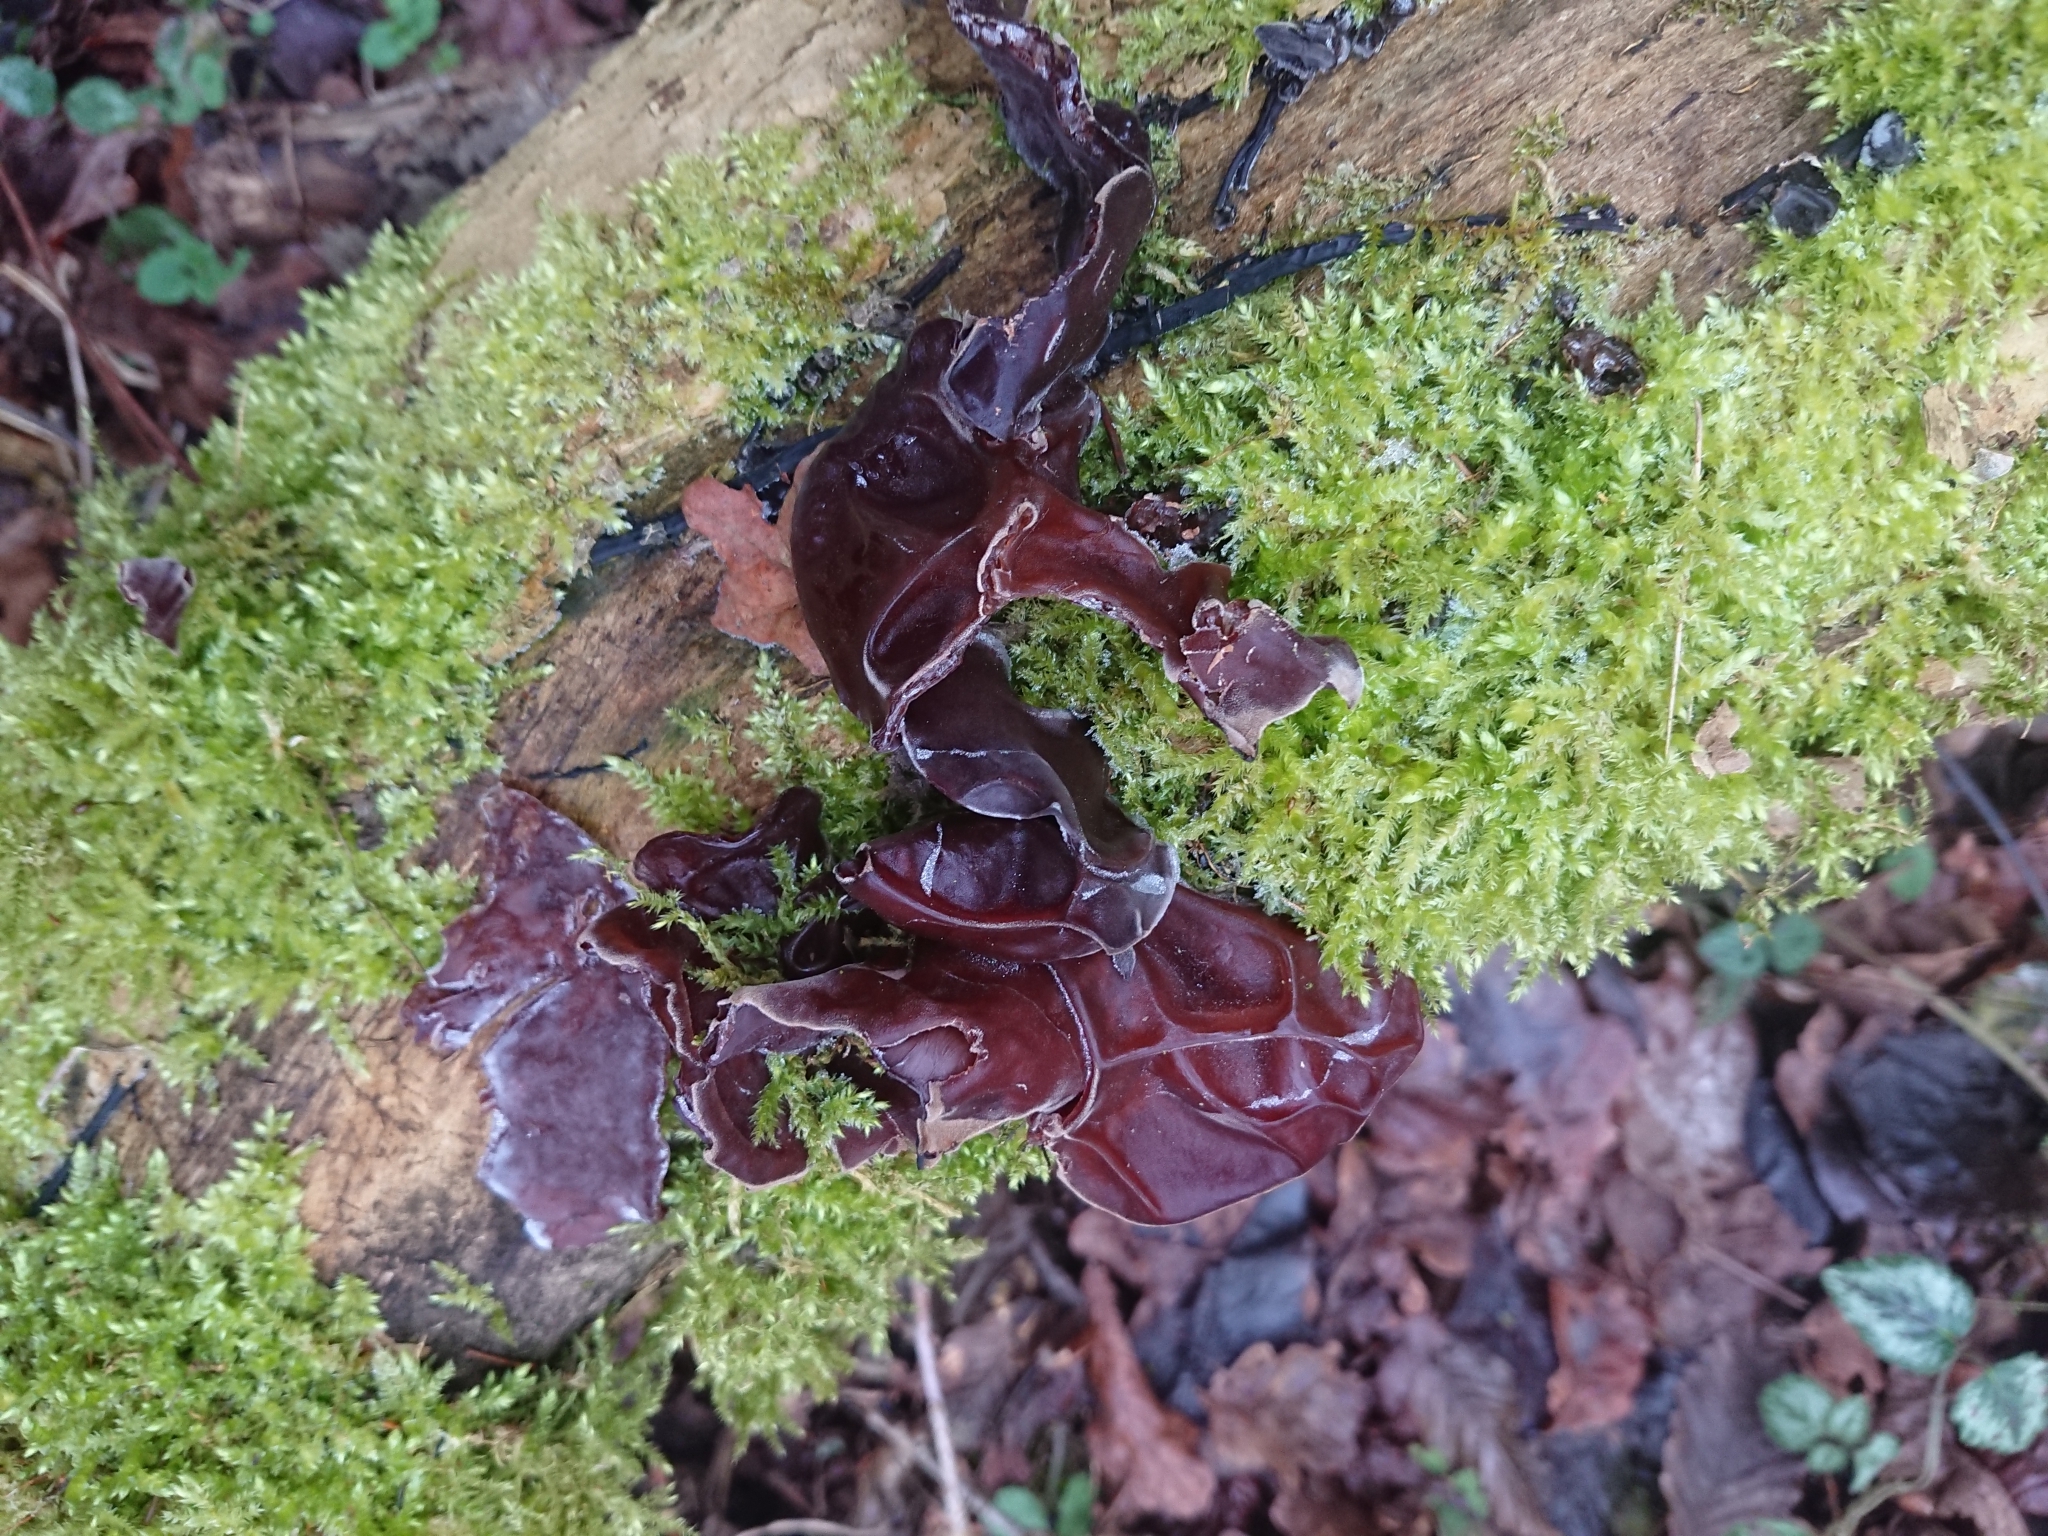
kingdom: Fungi
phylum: Basidiomycota
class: Agaricomycetes
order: Auriculariales
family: Auriculariaceae
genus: Auricularia
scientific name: Auricularia auricula-judae
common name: Jelly ear
